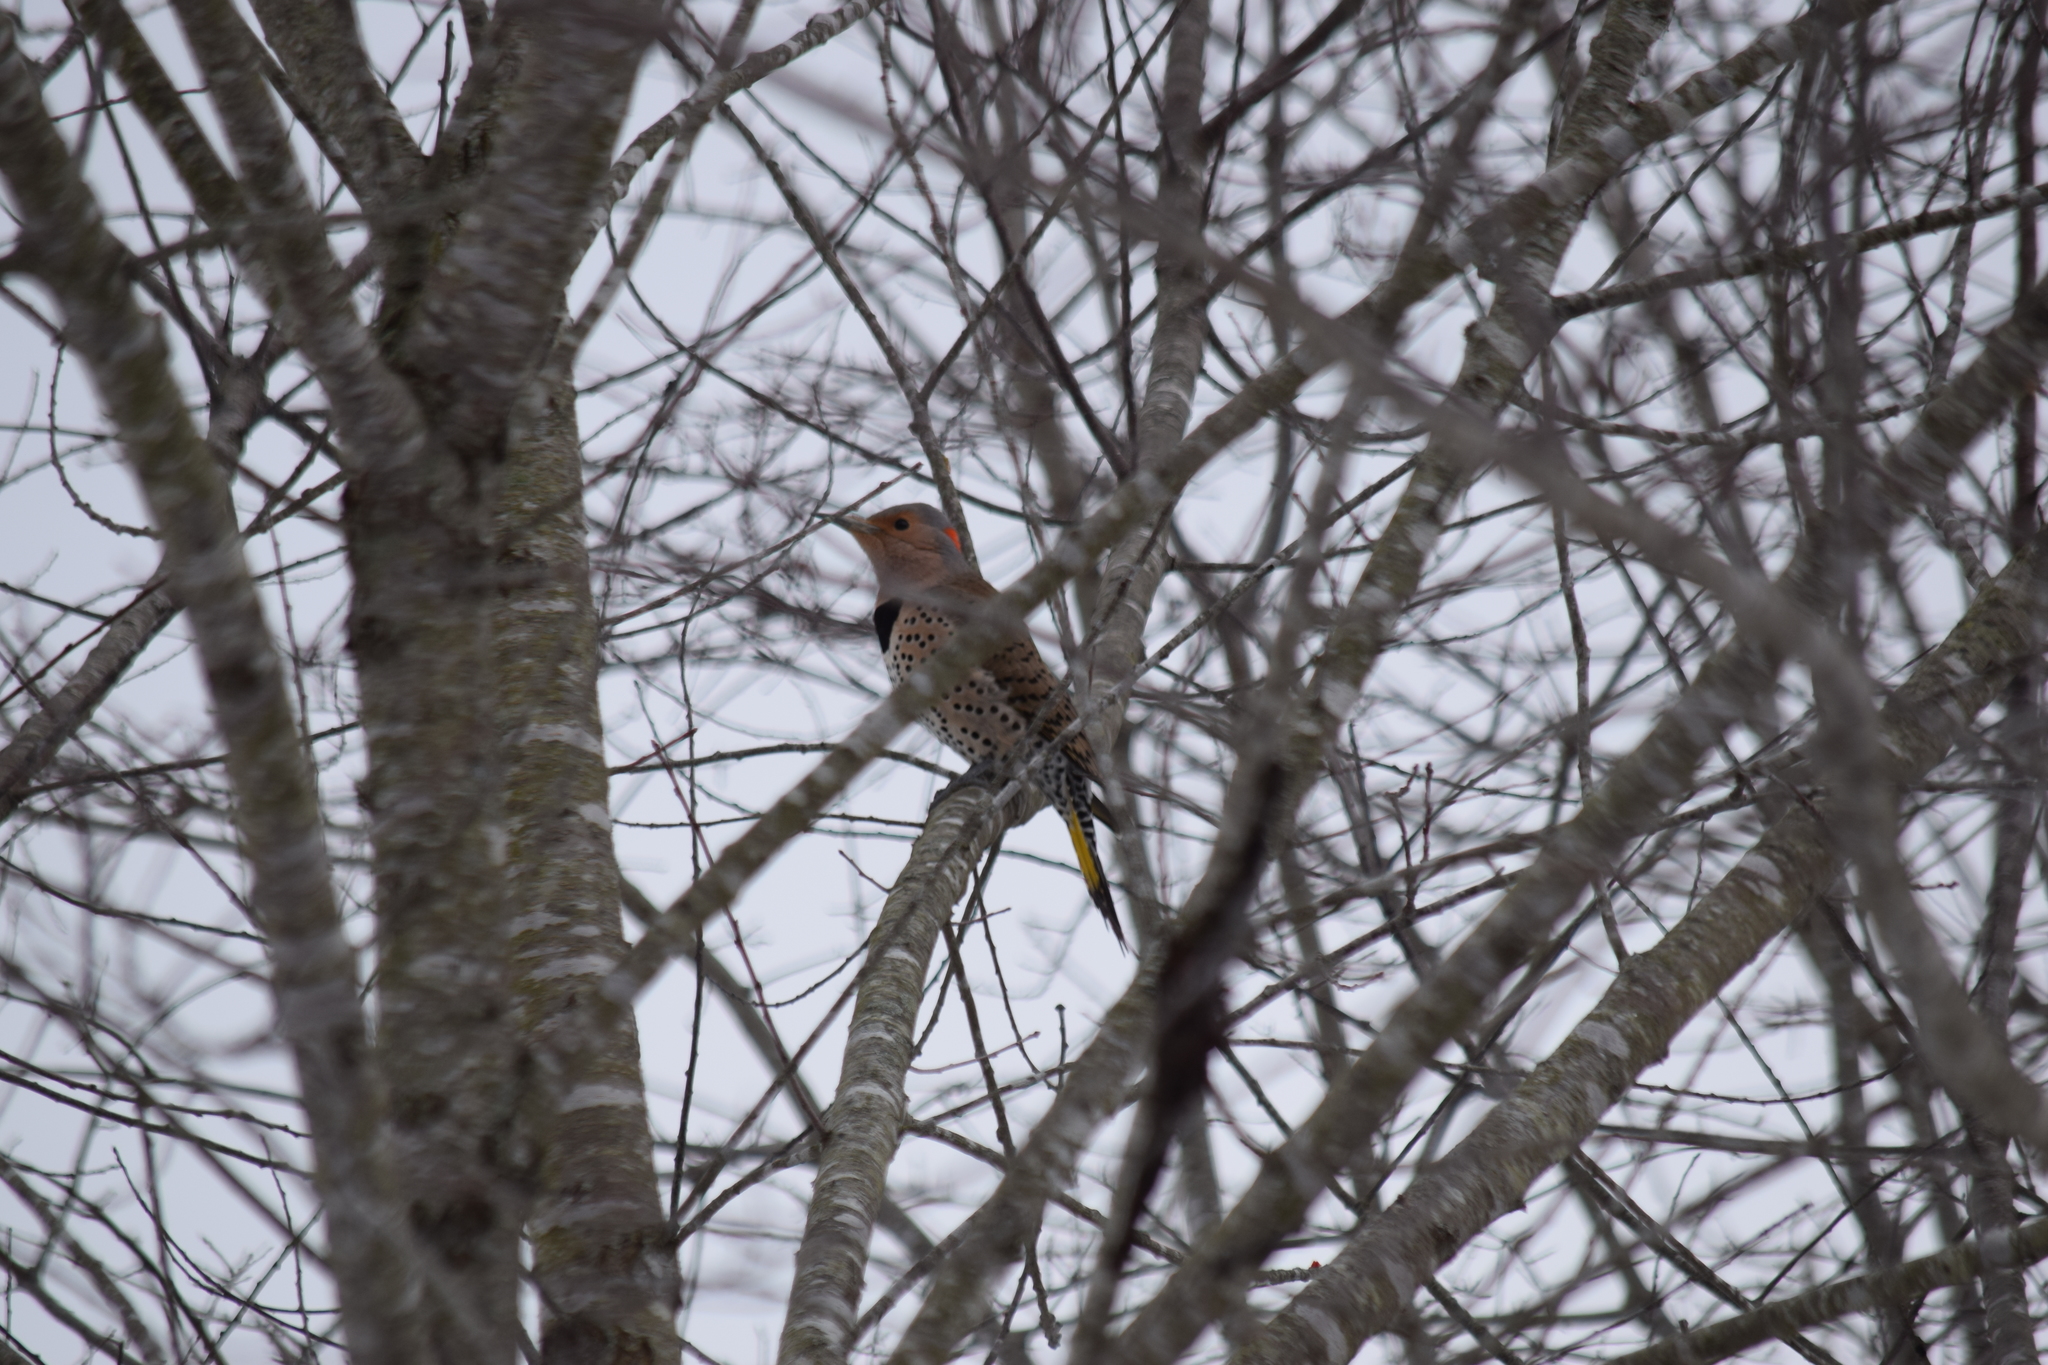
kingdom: Animalia
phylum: Chordata
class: Aves
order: Piciformes
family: Picidae
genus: Colaptes
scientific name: Colaptes auratus
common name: Northern flicker
